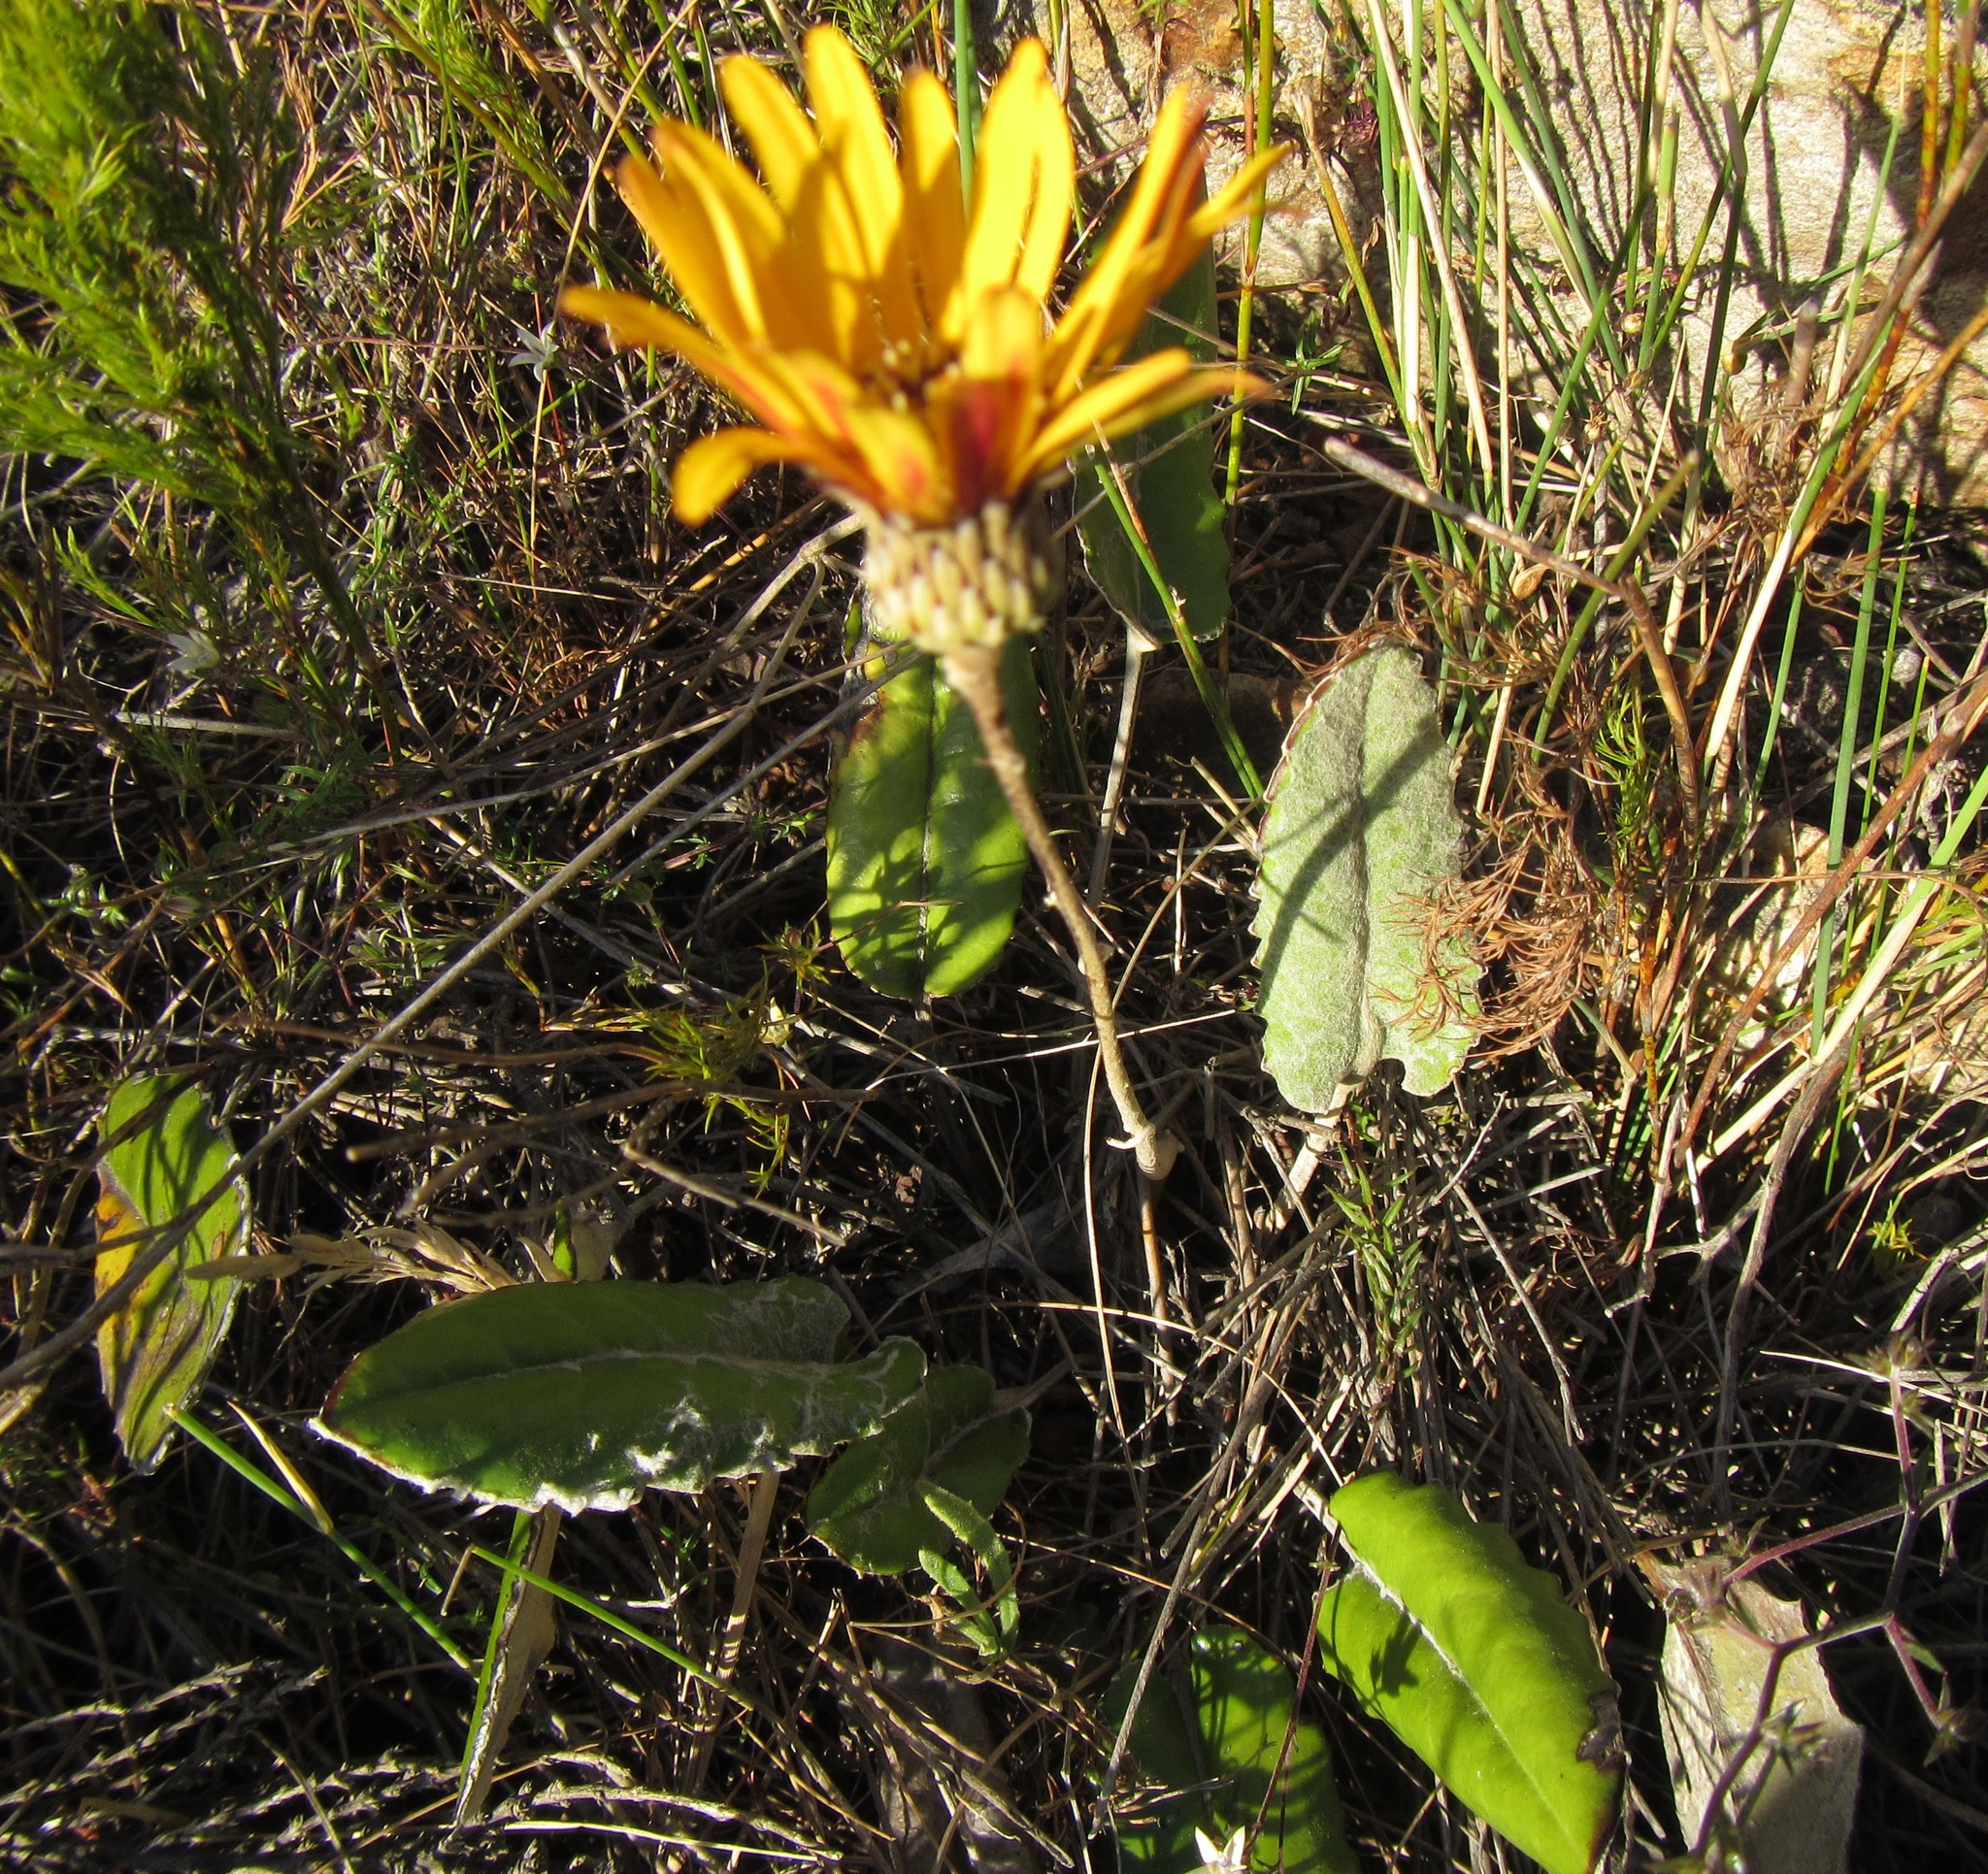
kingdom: Plantae
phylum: Tracheophyta
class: Magnoliopsida
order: Asterales
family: Asteraceae
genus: Gerbera
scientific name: Gerbera tomentosa
